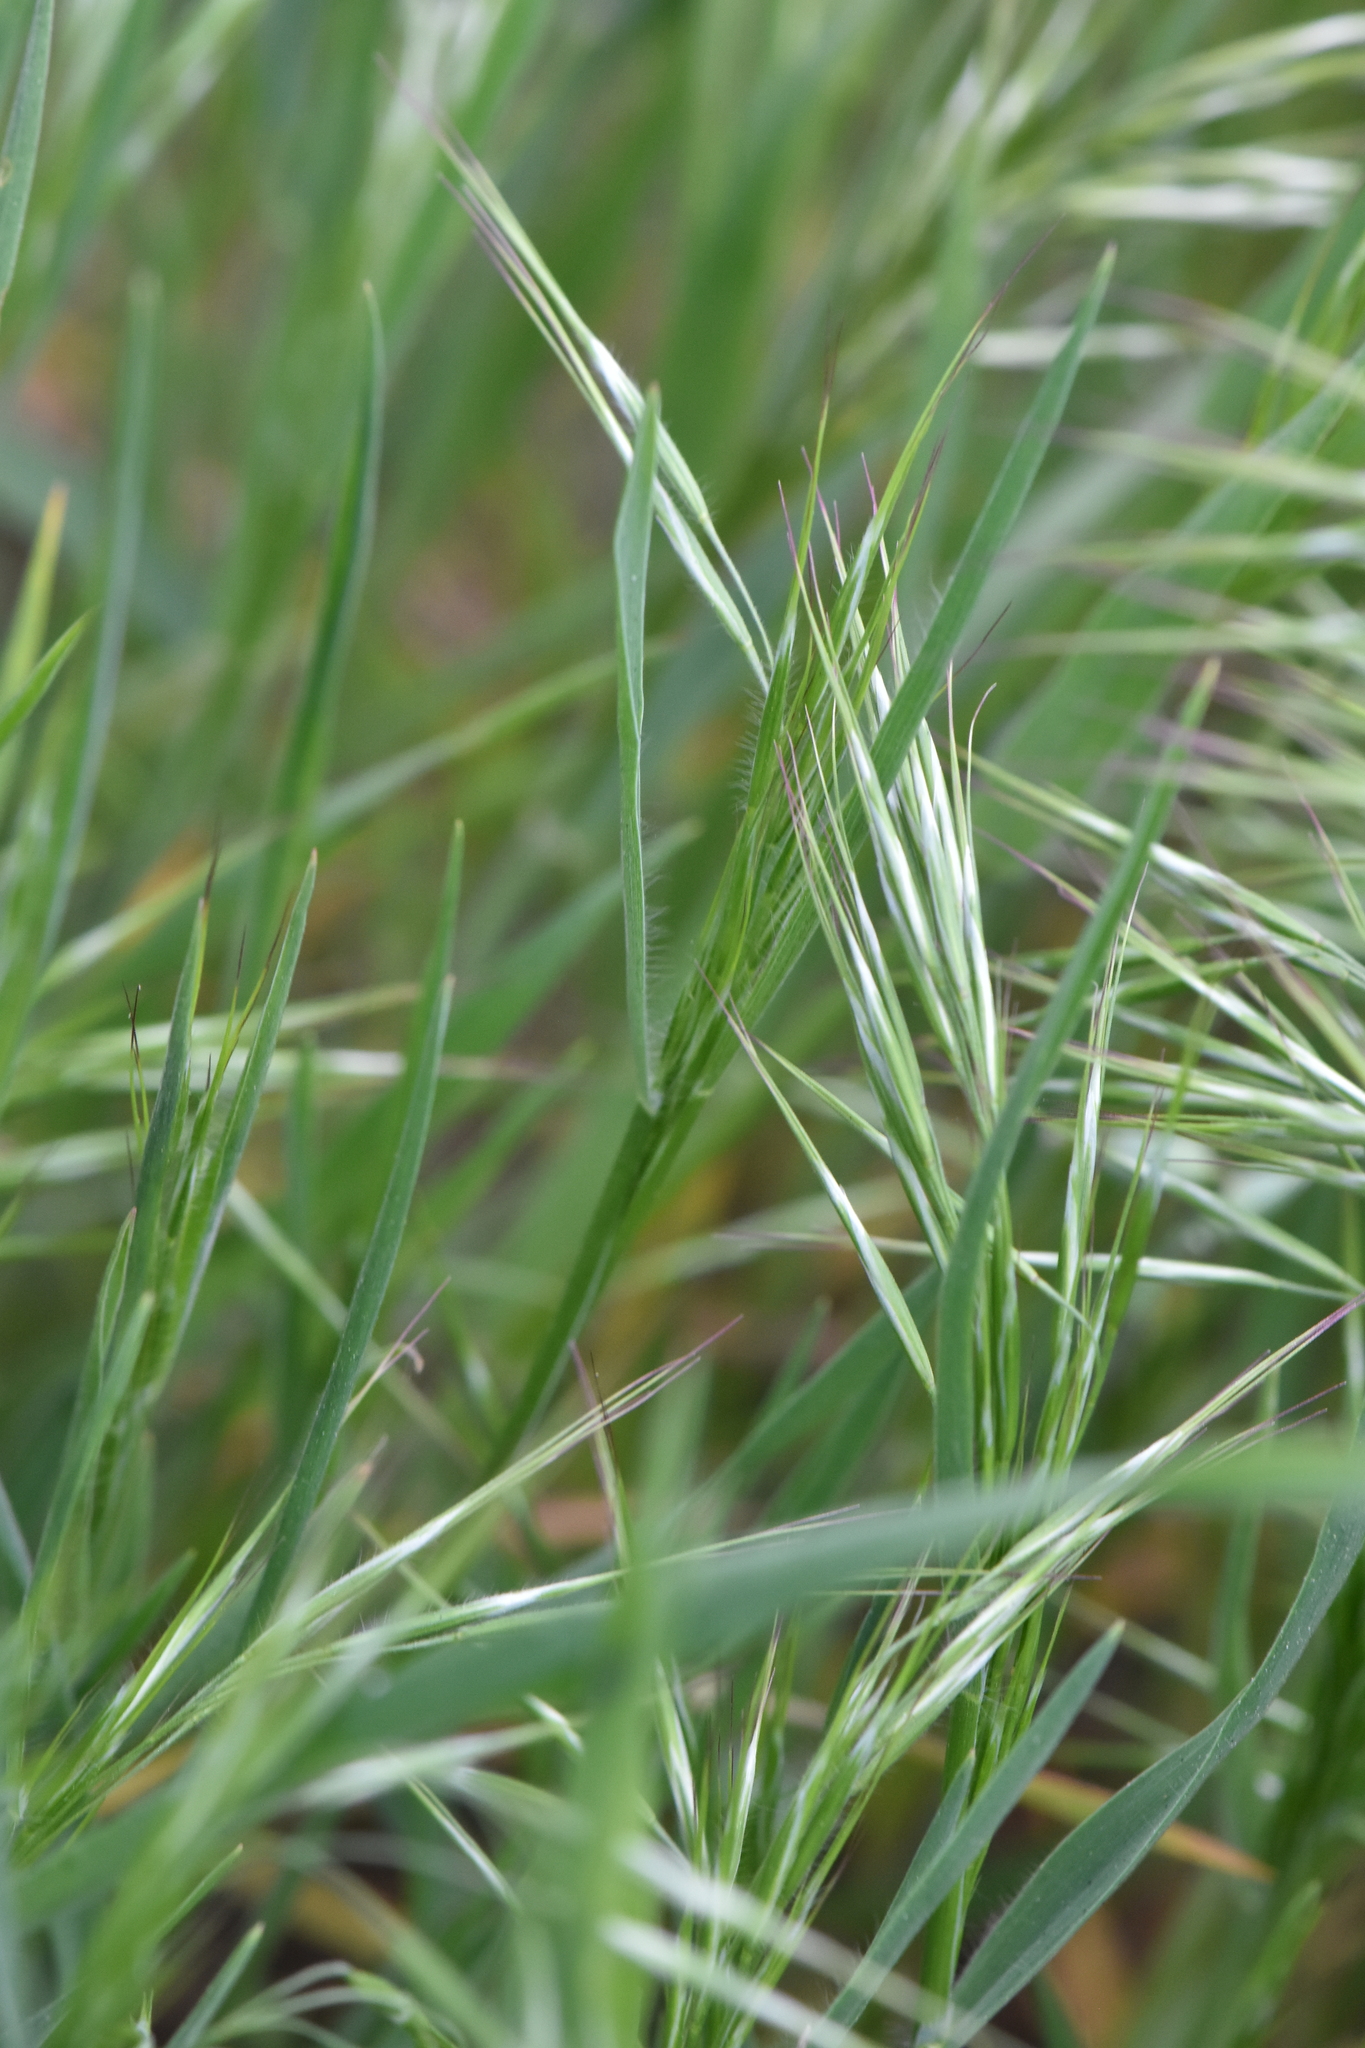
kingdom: Plantae
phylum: Tracheophyta
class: Liliopsida
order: Poales
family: Poaceae
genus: Bromus
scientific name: Bromus tectorum
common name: Cheatgrass
